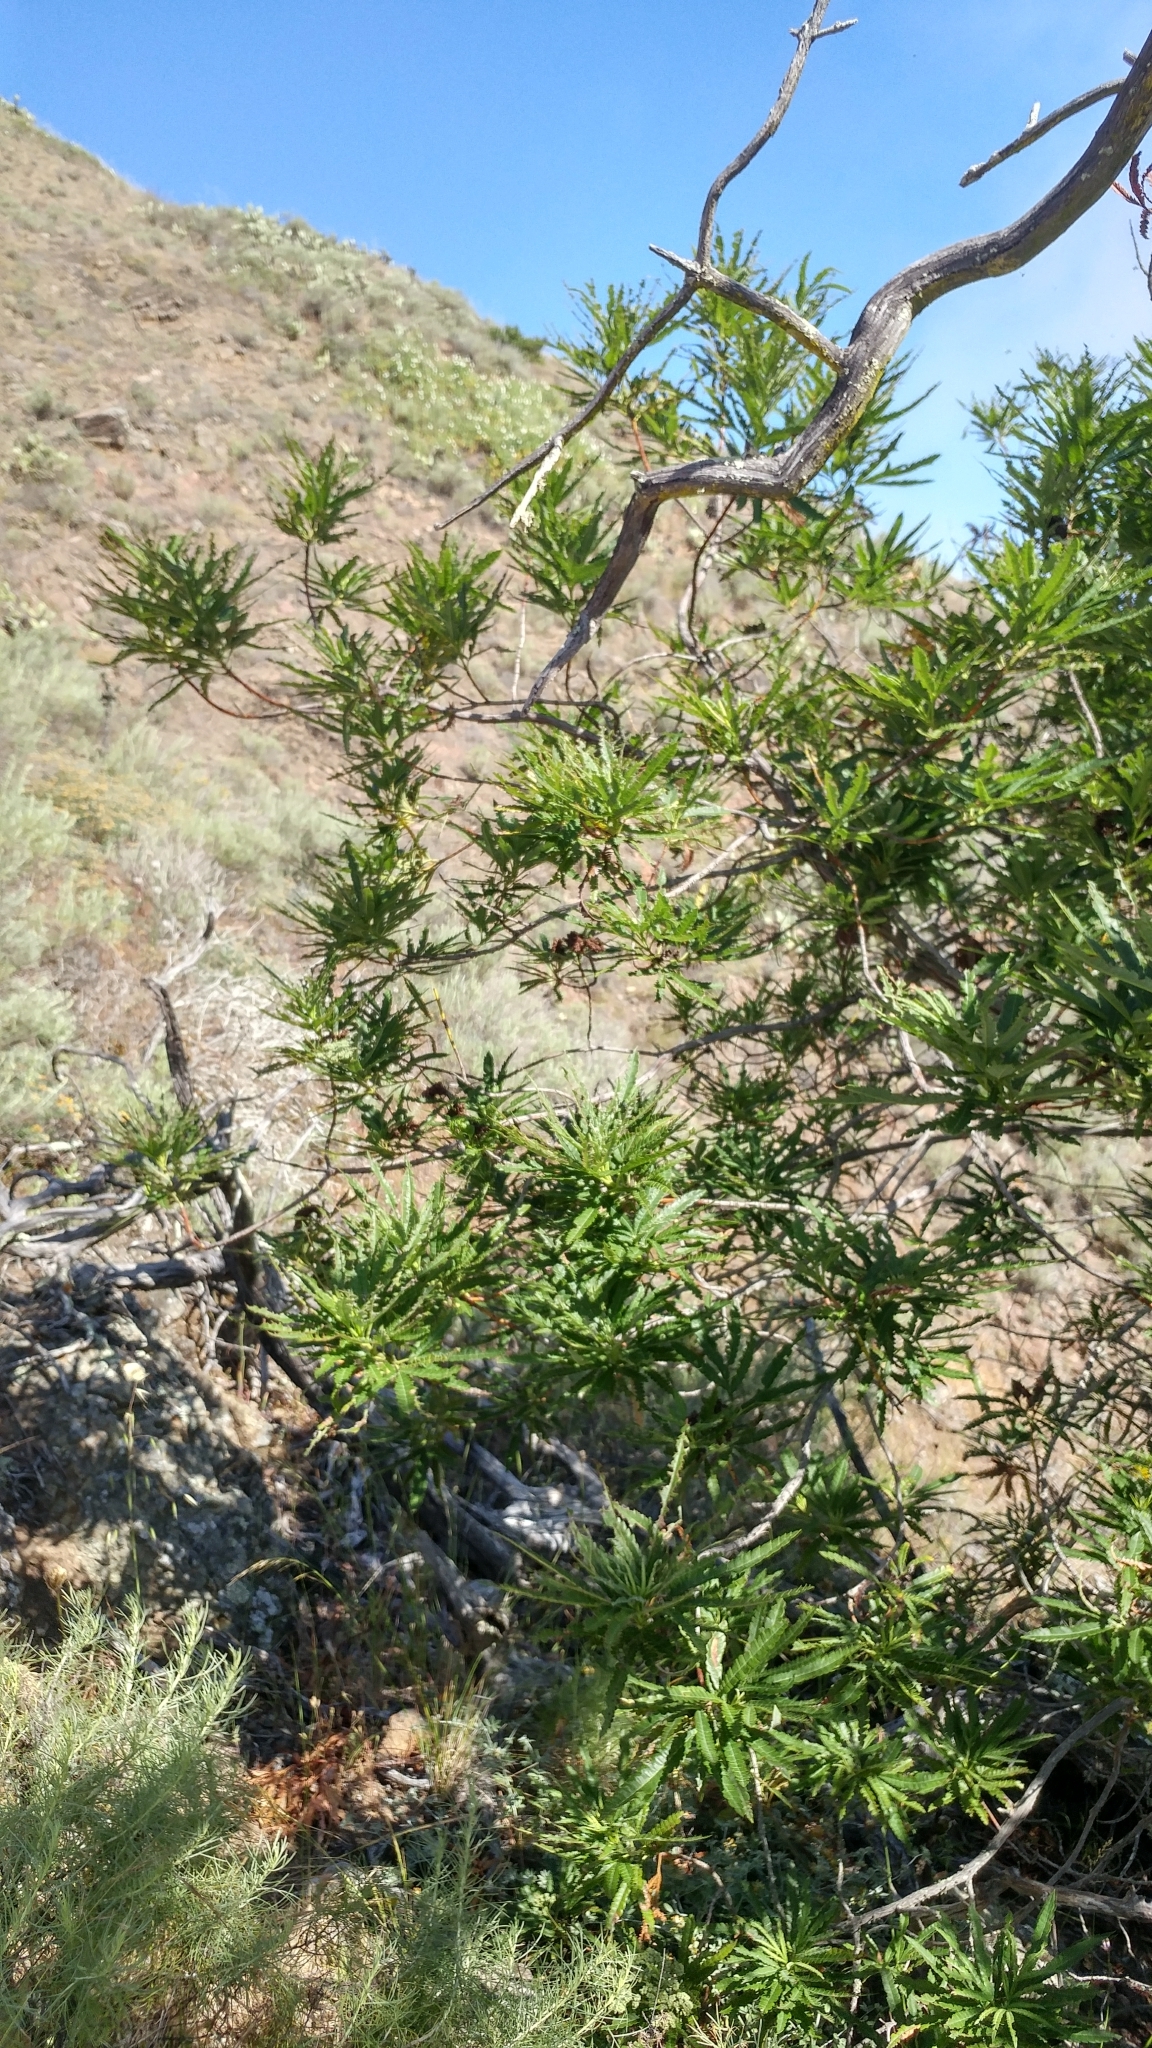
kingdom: Plantae
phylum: Tracheophyta
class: Magnoliopsida
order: Rosales
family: Rosaceae
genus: Lyonothamnus
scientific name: Lyonothamnus floribundus
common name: Catalina ironwood
